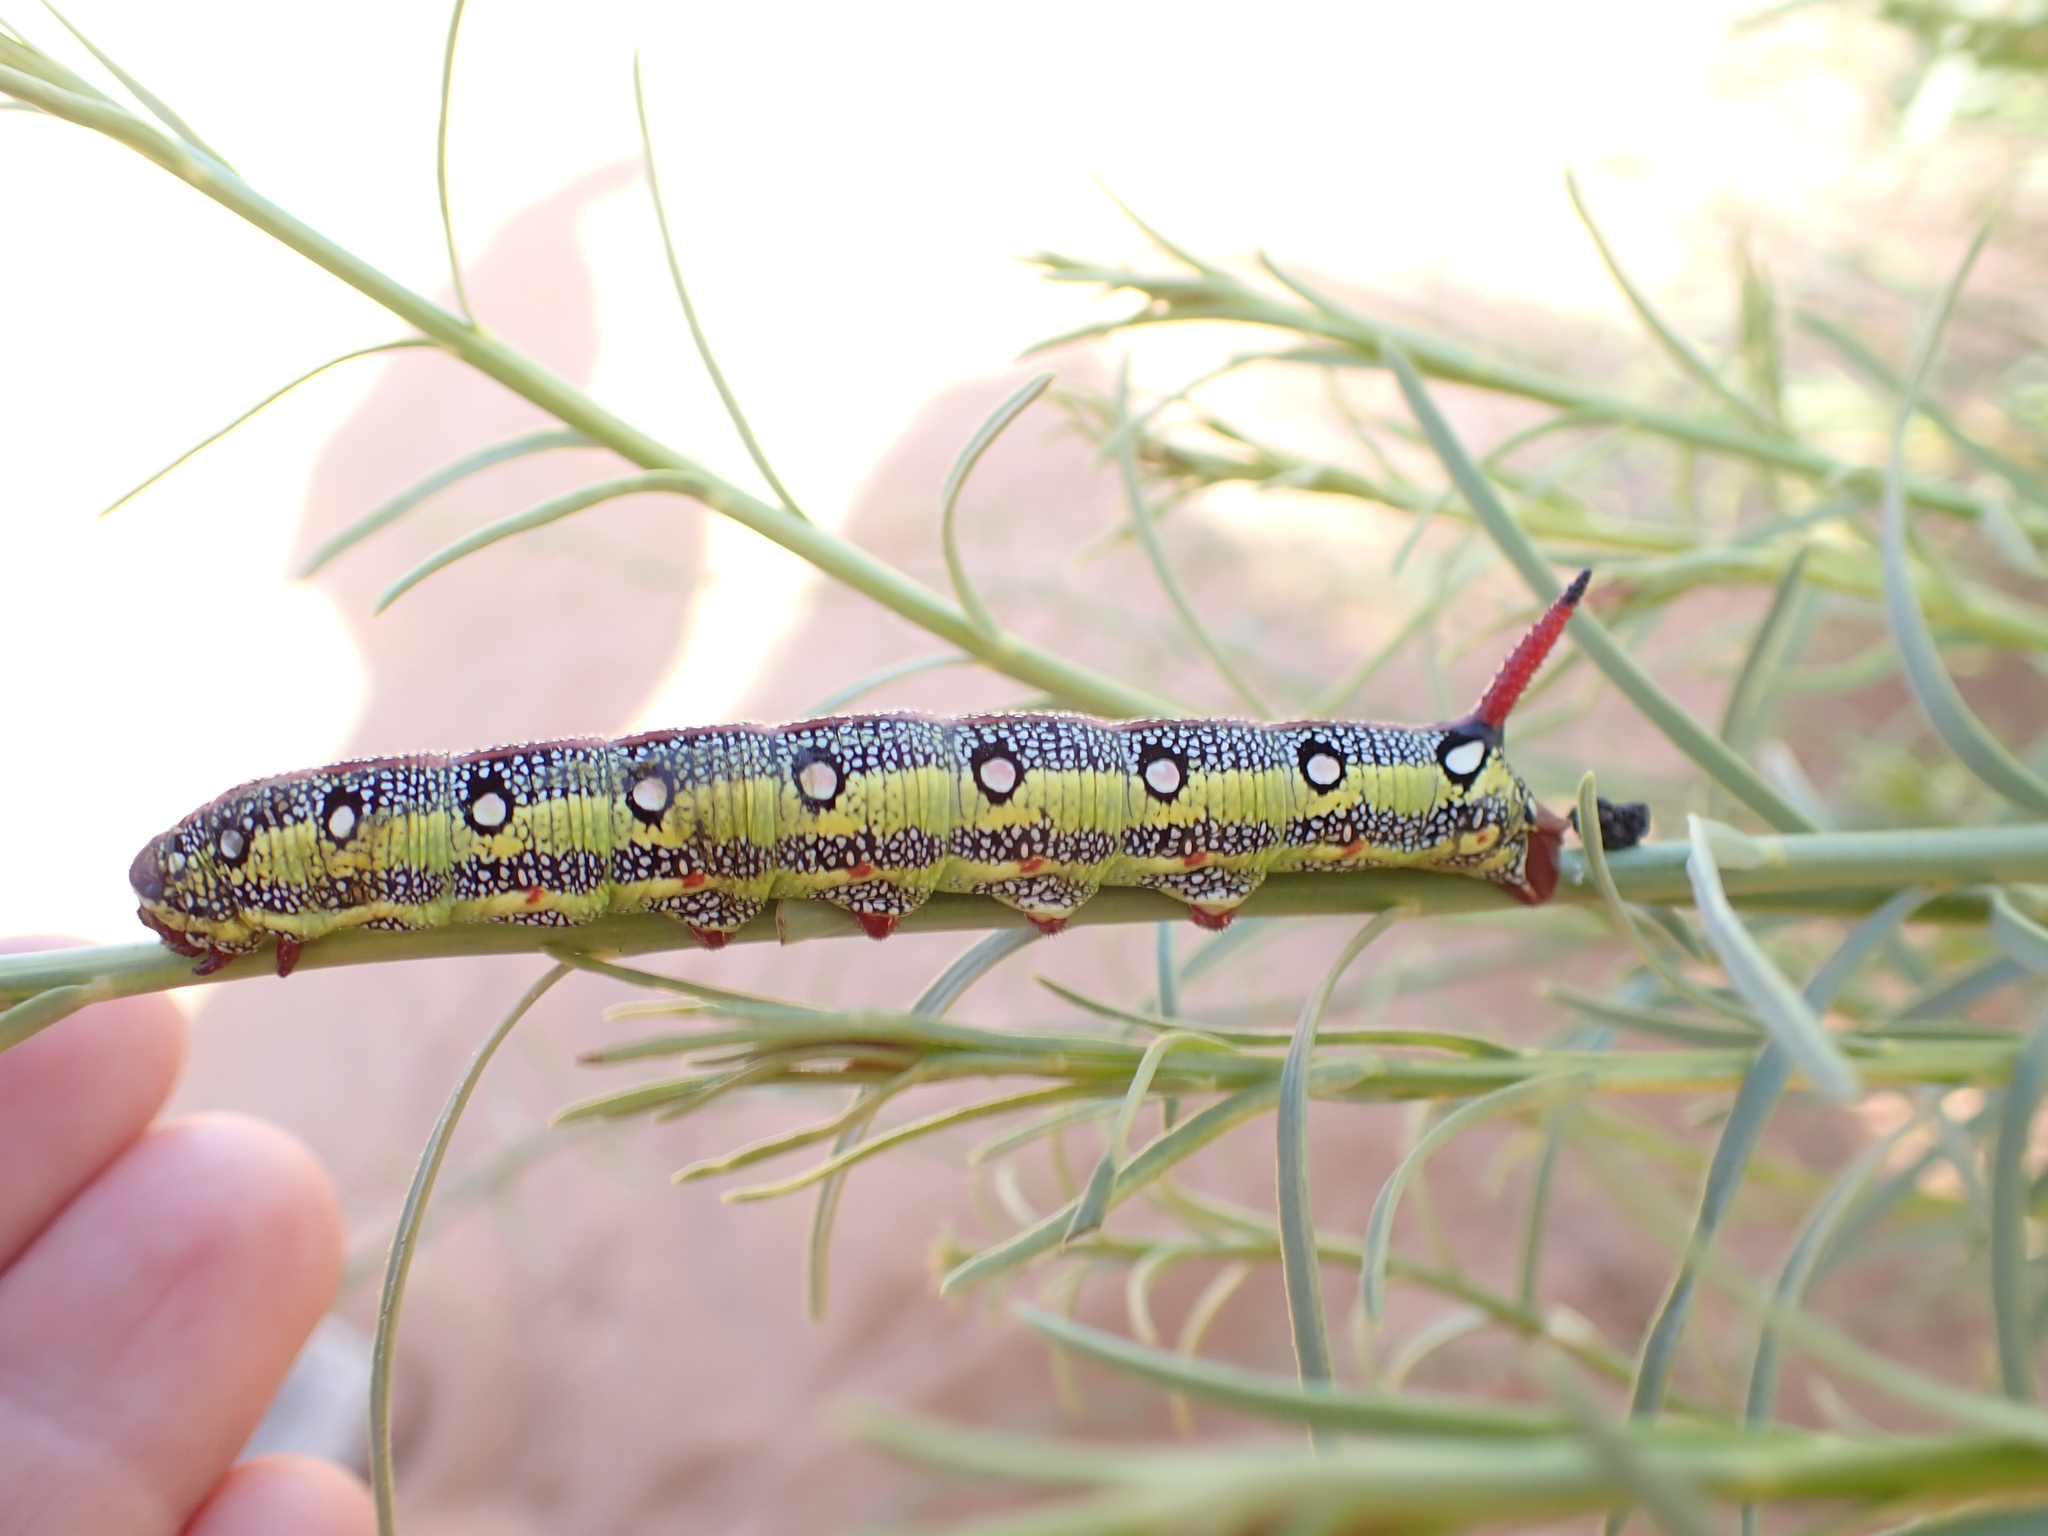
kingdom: Animalia
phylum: Arthropoda
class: Insecta
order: Lepidoptera
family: Sphingidae
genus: Hyles
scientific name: Hyles tithymali
